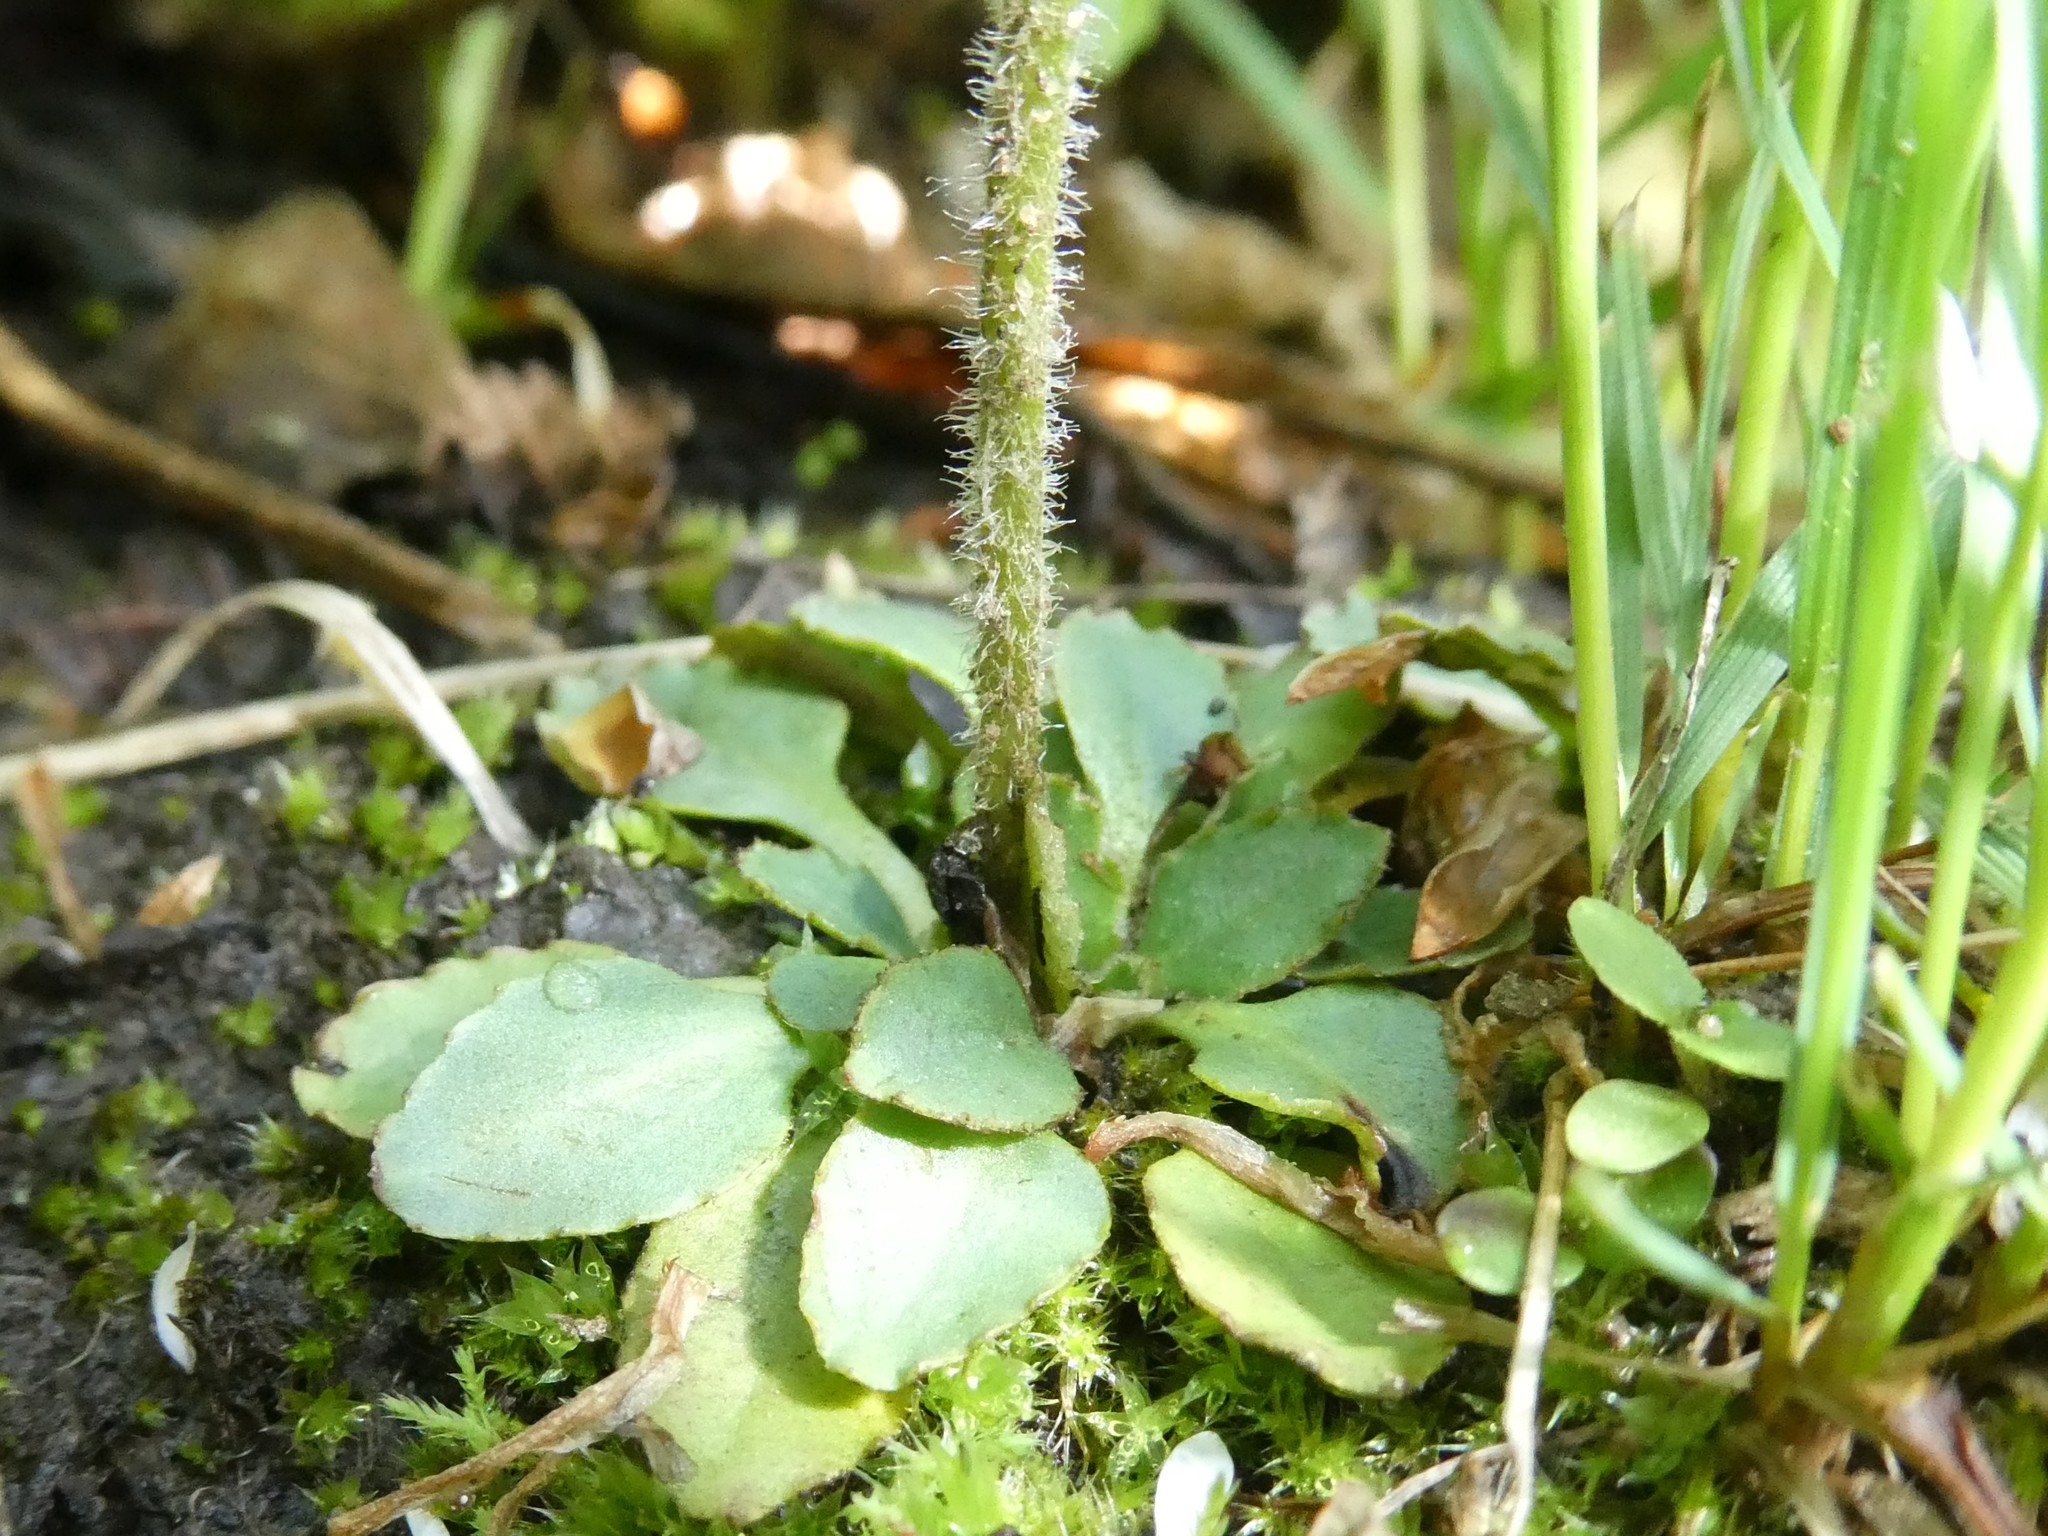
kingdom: Plantae
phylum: Tracheophyta
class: Magnoliopsida
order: Saxifragales
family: Saxifragaceae
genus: Micranthes
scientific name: Micranthes virginiensis
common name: Early saxifrage
